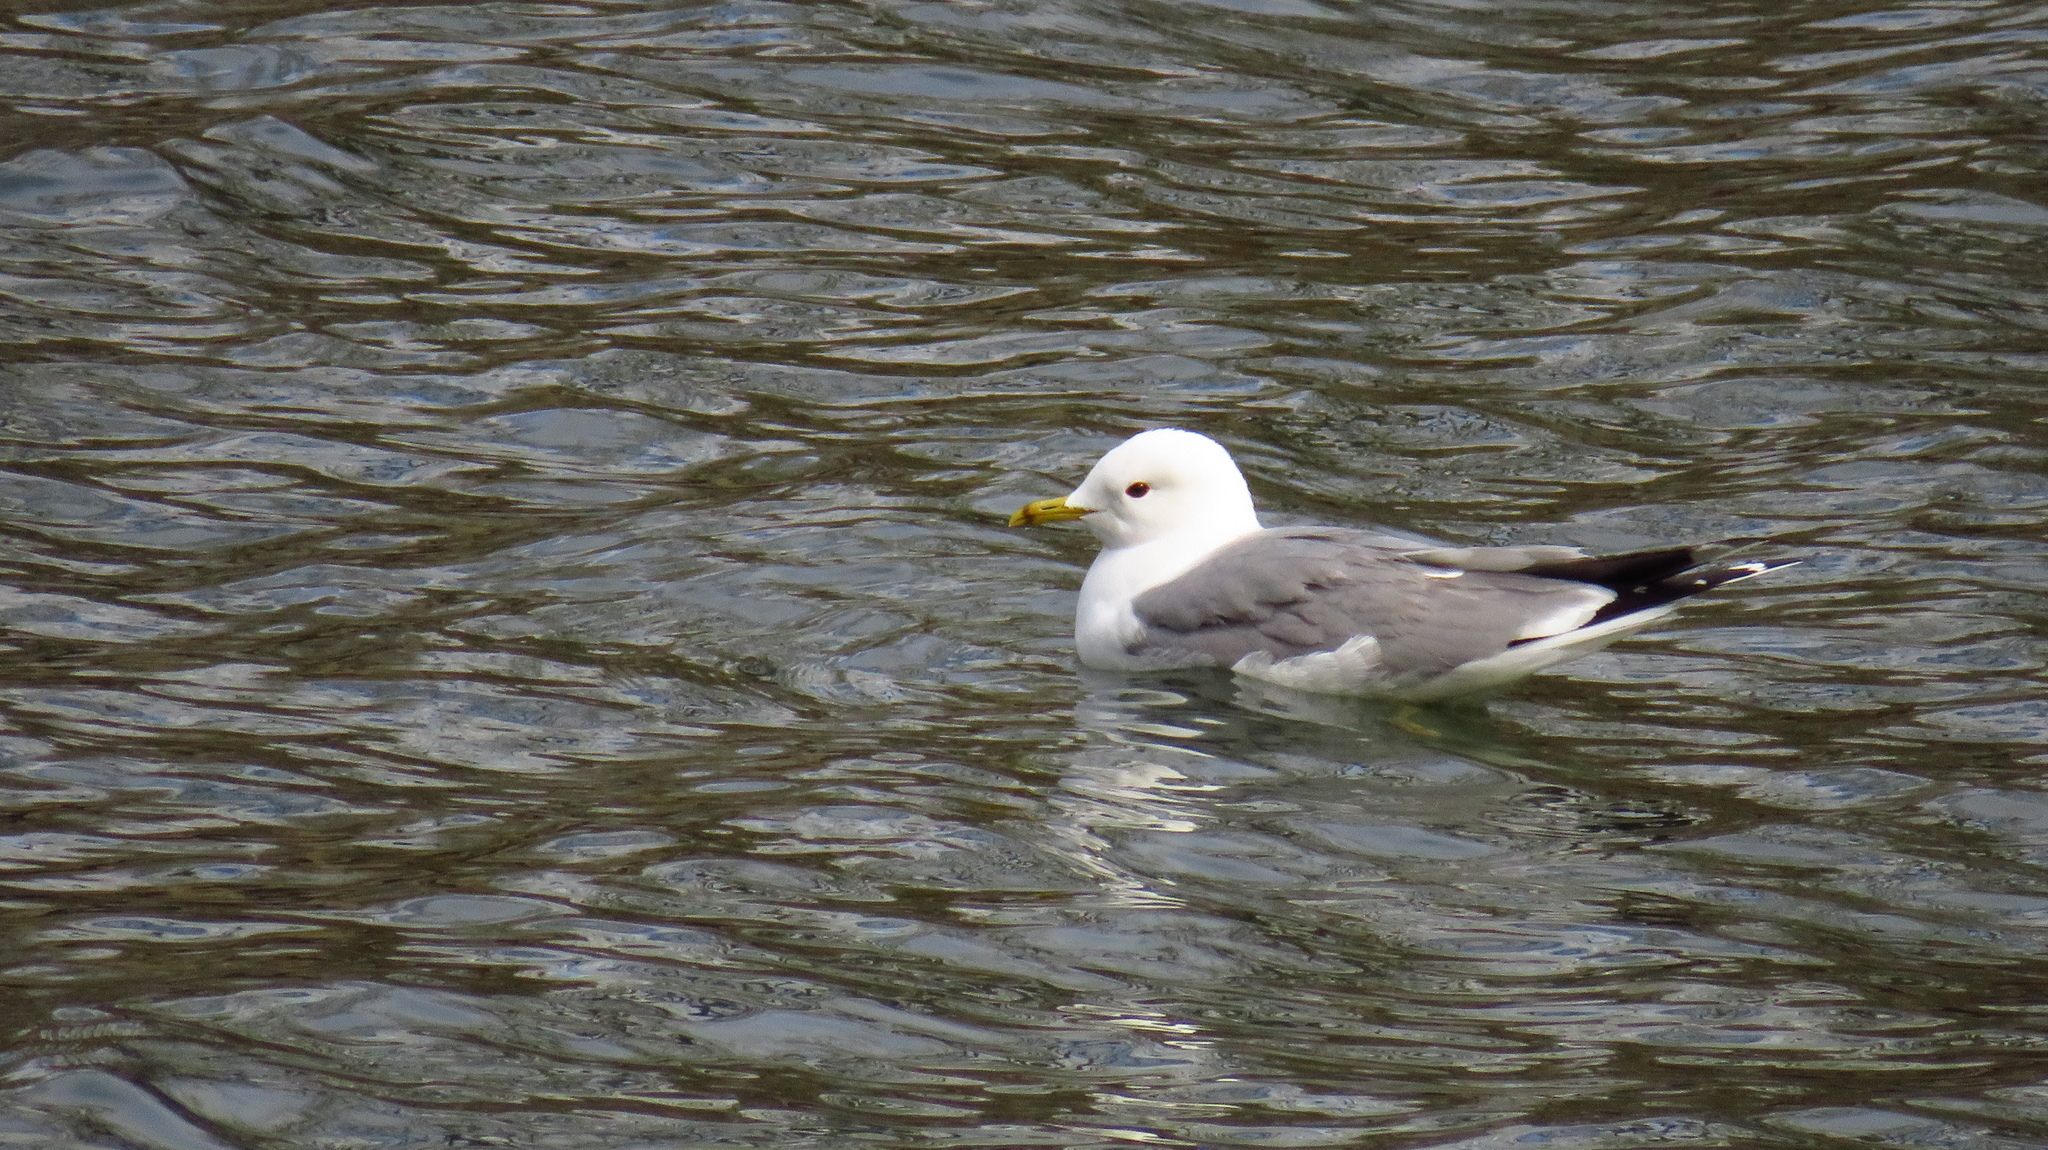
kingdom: Animalia
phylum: Chordata
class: Aves
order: Charadriiformes
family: Laridae
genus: Larus
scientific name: Larus canus
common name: Mew gull
